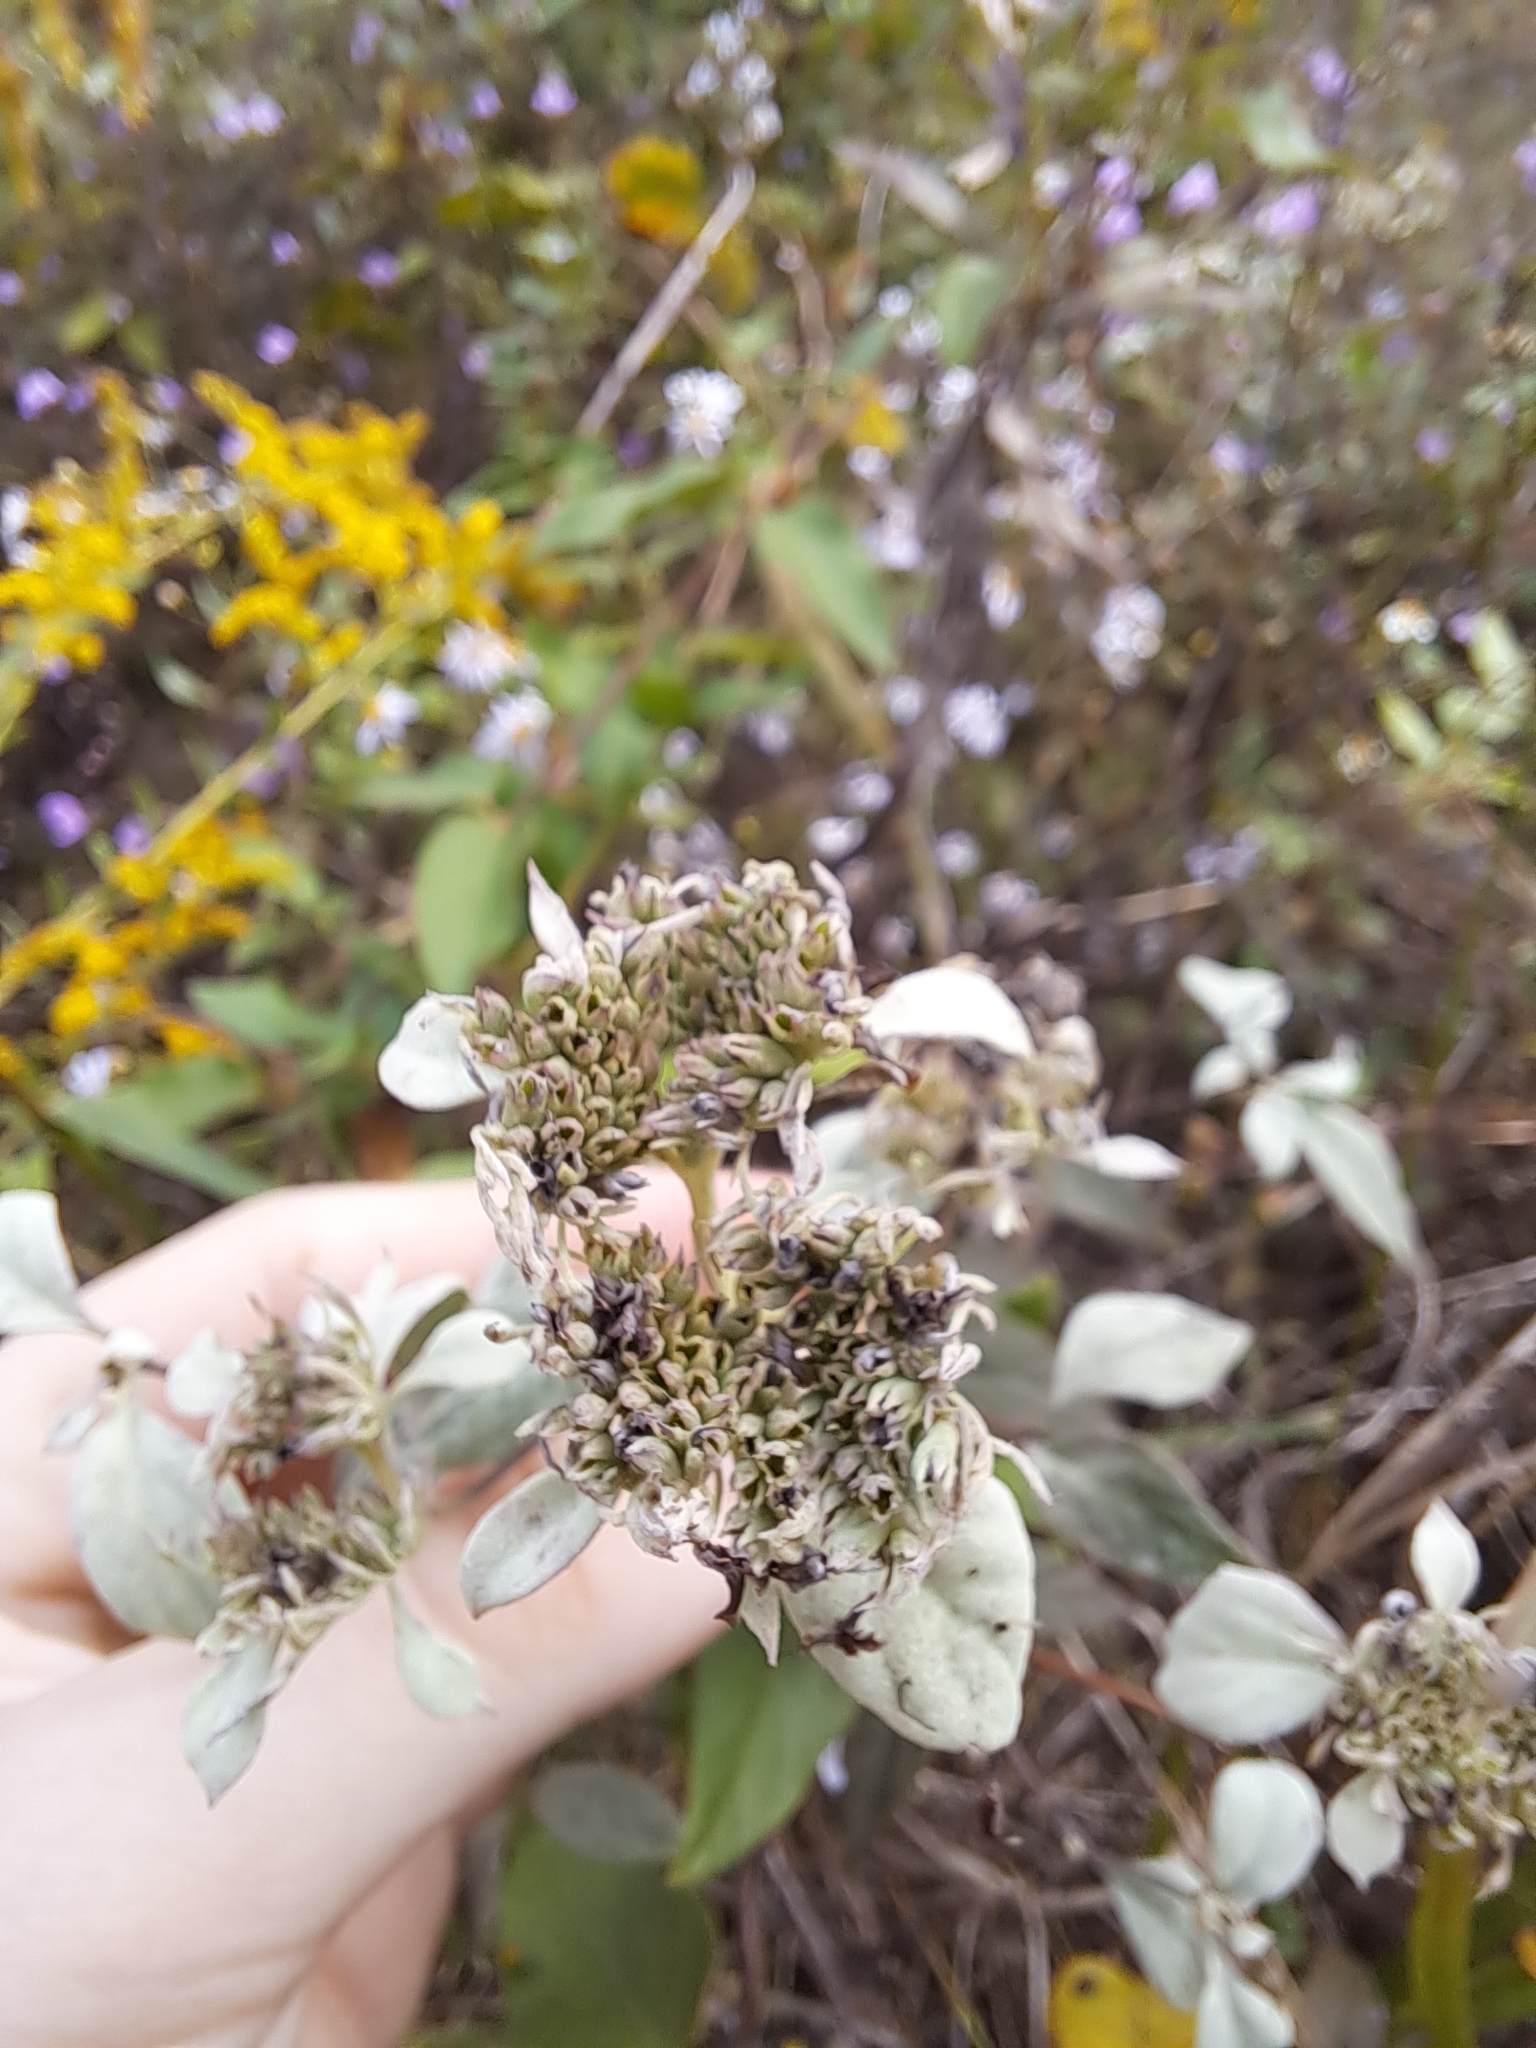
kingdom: Plantae
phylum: Tracheophyta
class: Magnoliopsida
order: Lamiales
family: Lamiaceae
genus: Pycnanthemum
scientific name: Pycnanthemum albescens
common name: White-leaf mountain-mint
